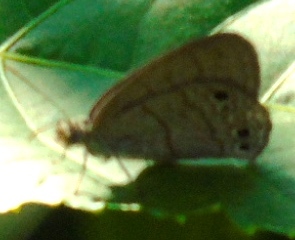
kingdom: Animalia
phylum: Arthropoda
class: Insecta
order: Lepidoptera
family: Nymphalidae
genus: Hermeuptychia
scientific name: Hermeuptychia
